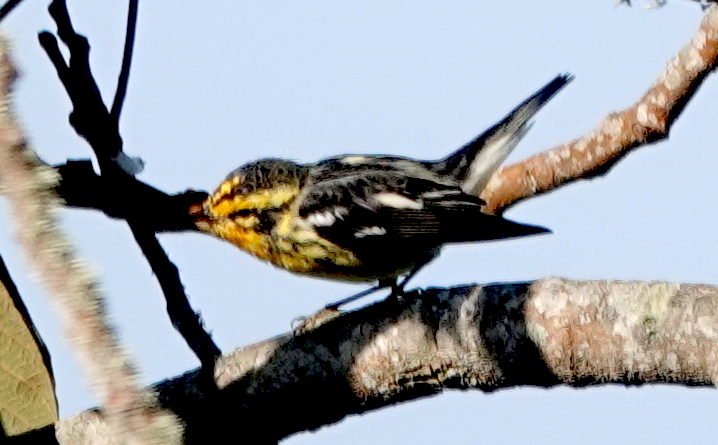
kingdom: Animalia
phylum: Chordata
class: Aves
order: Passeriformes
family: Parulidae
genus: Setophaga
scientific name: Setophaga fusca
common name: Blackburnian warbler
